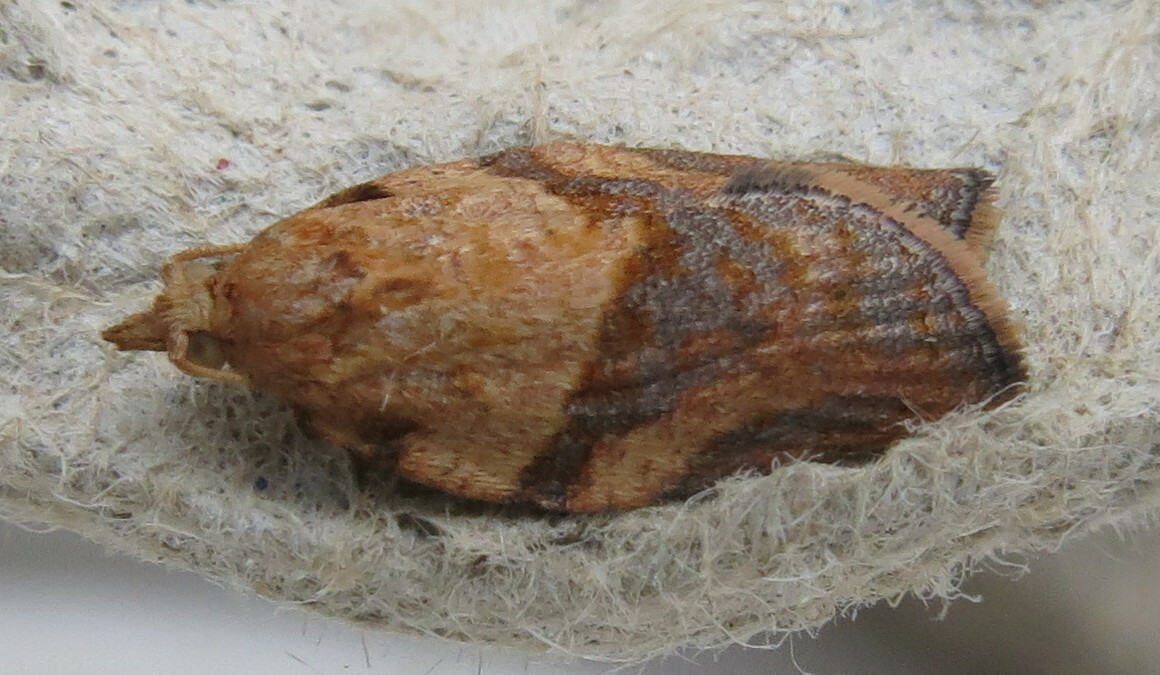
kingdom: Animalia
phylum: Arthropoda
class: Insecta
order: Lepidoptera
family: Tortricidae
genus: Epiphyas
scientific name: Epiphyas postvittana
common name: Light brown apple moth
